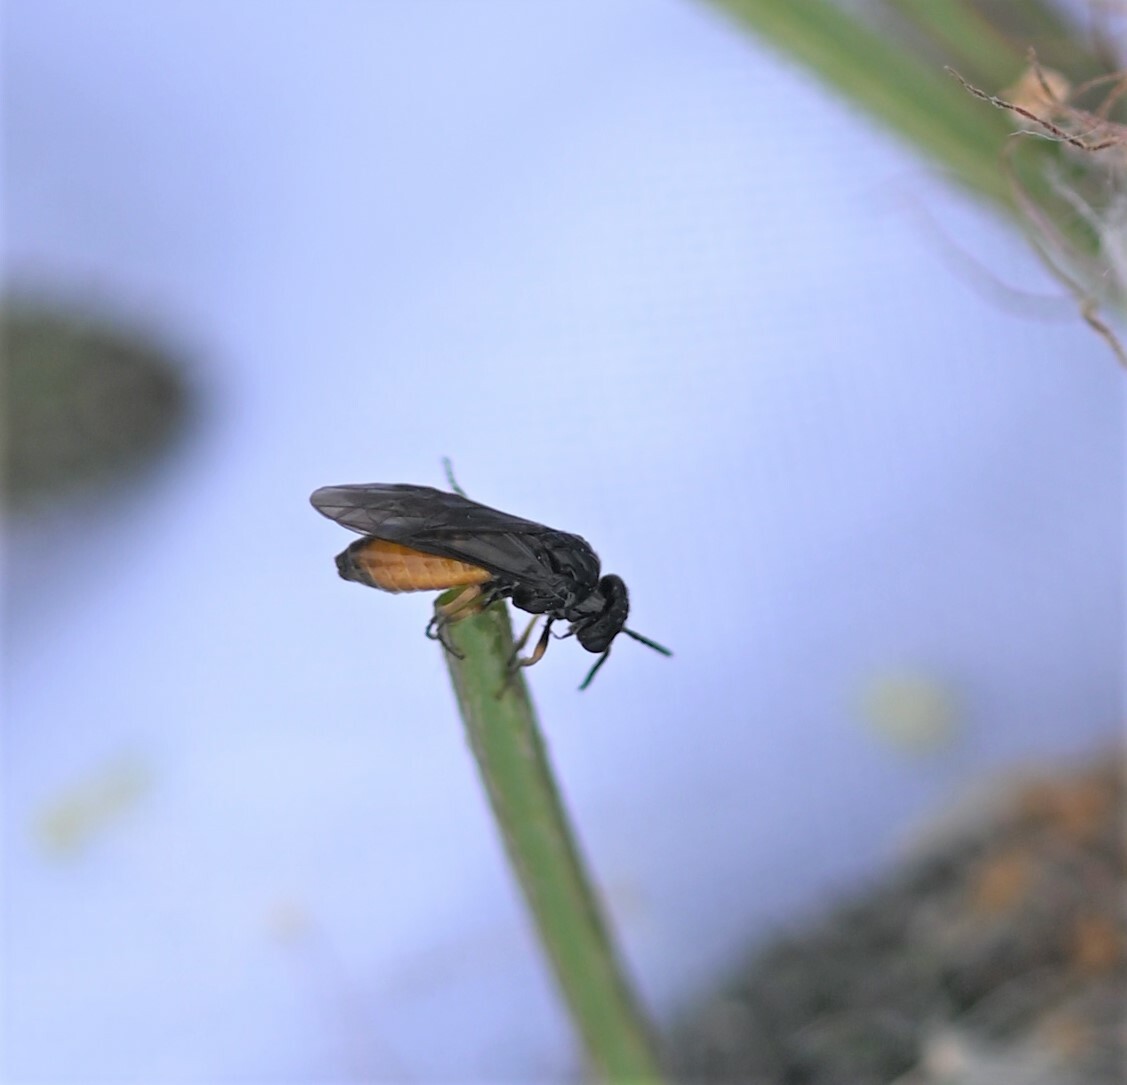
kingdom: Animalia
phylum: Arthropoda
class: Insecta
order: Hymenoptera
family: Tenthredinidae
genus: Eutomostethus
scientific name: Eutomostethus luteiventris
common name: Tenthredid wasp
